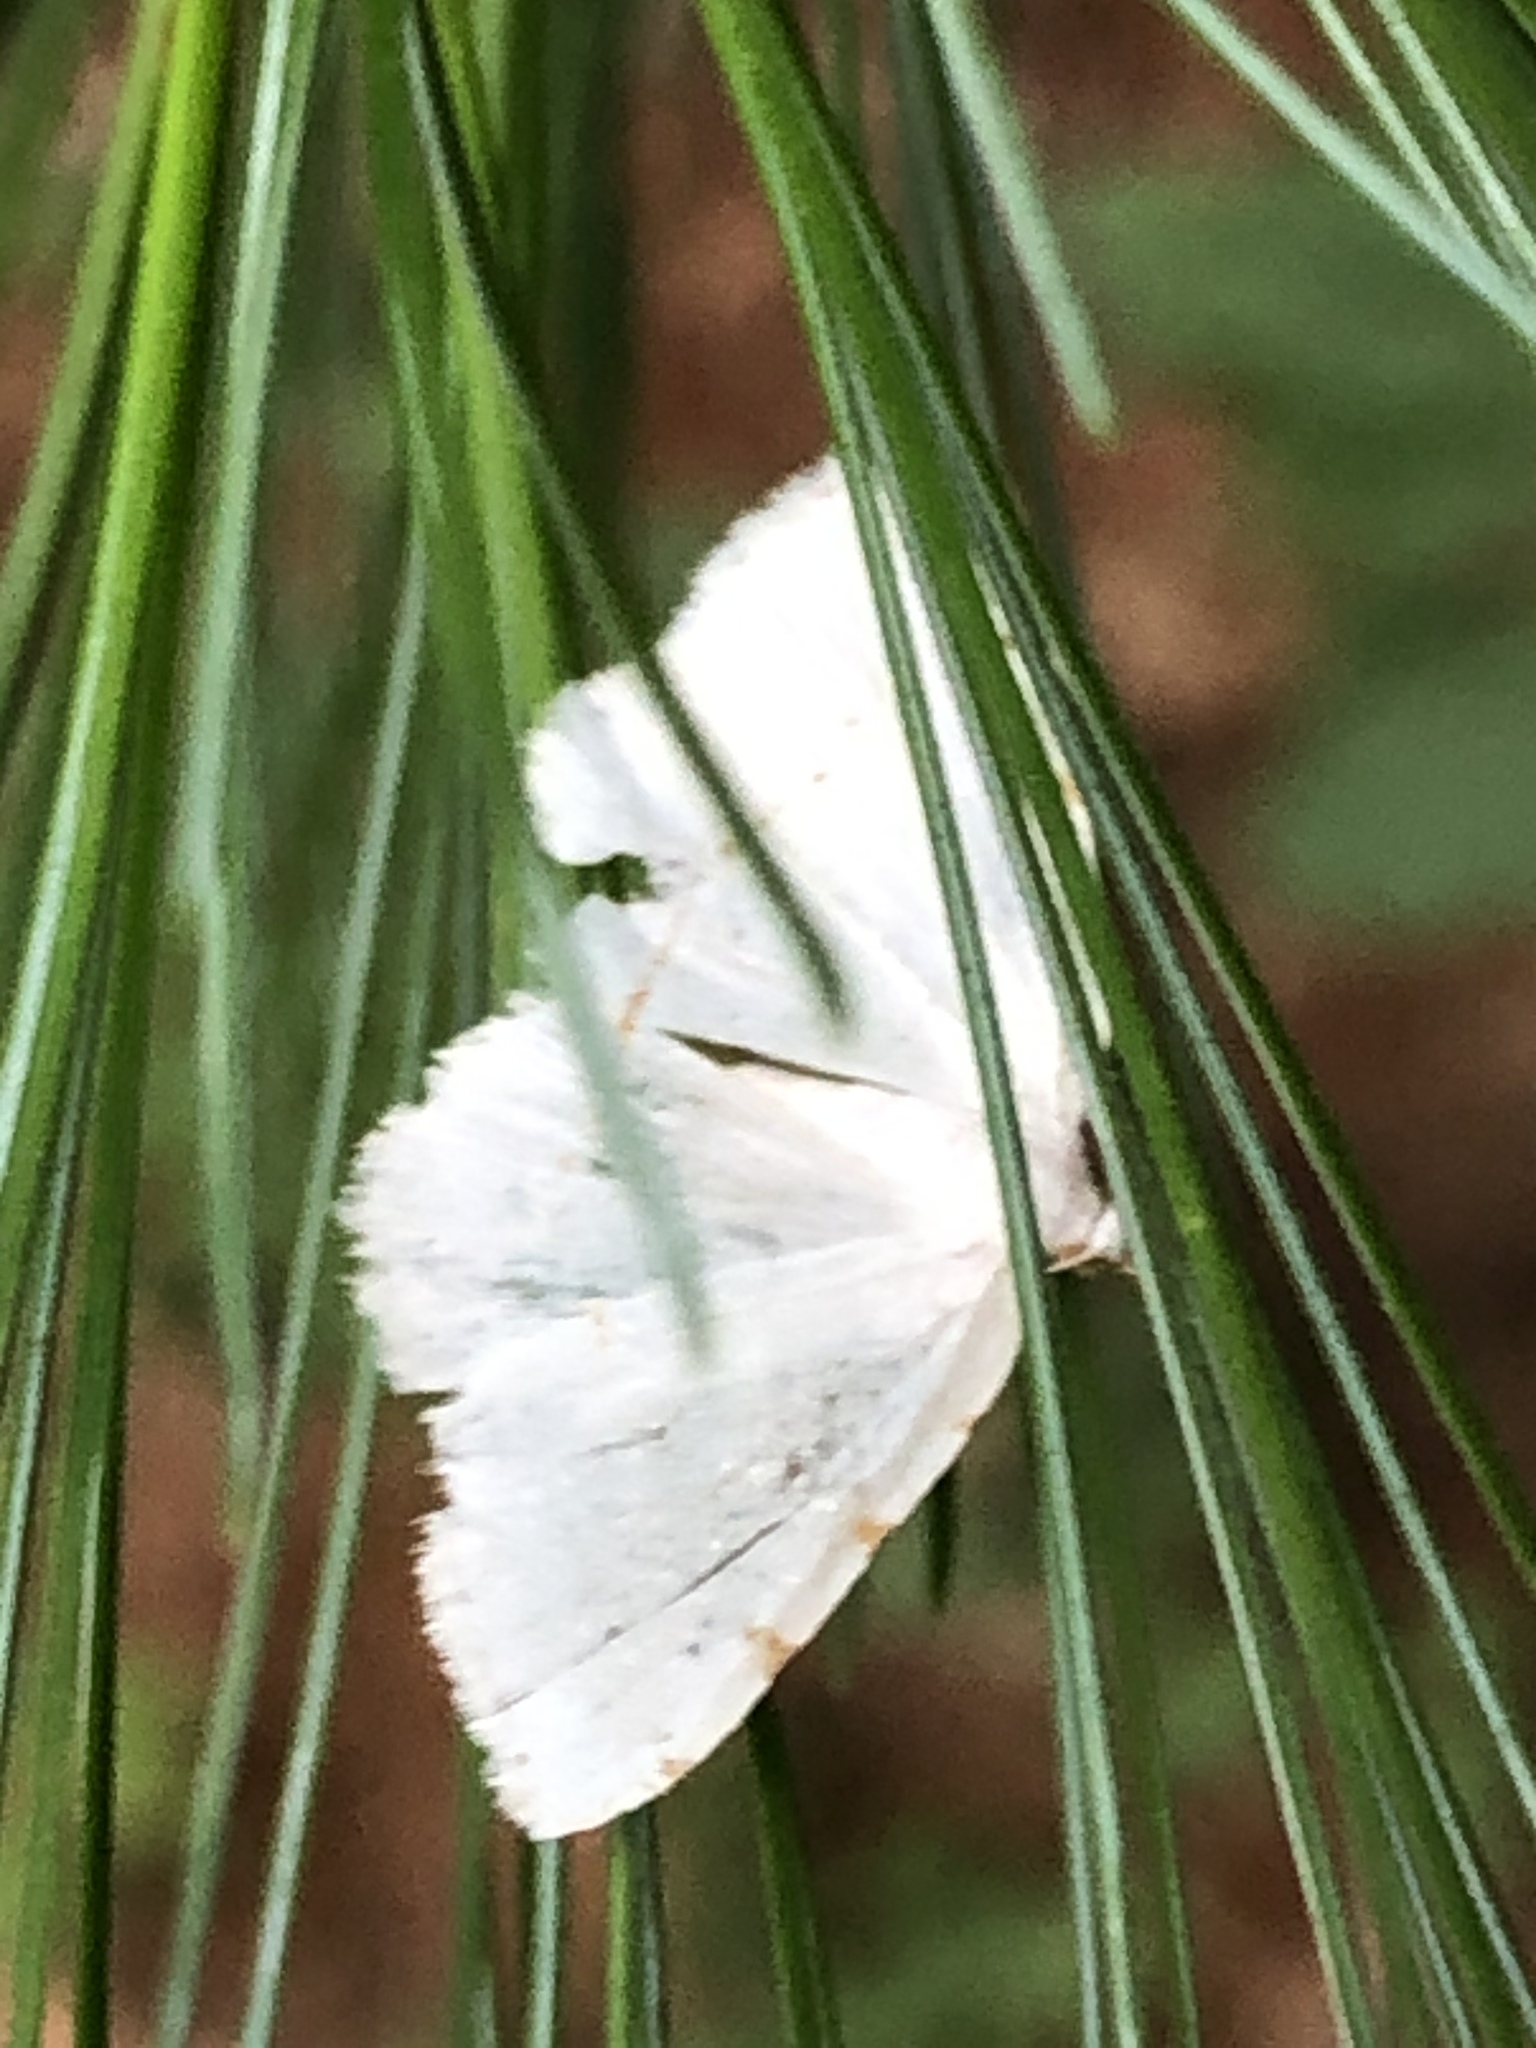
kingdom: Animalia
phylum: Arthropoda
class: Insecta
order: Lepidoptera
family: Geometridae
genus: Macaria
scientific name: Macaria pustularia
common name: Lesser maple spanworm moth
